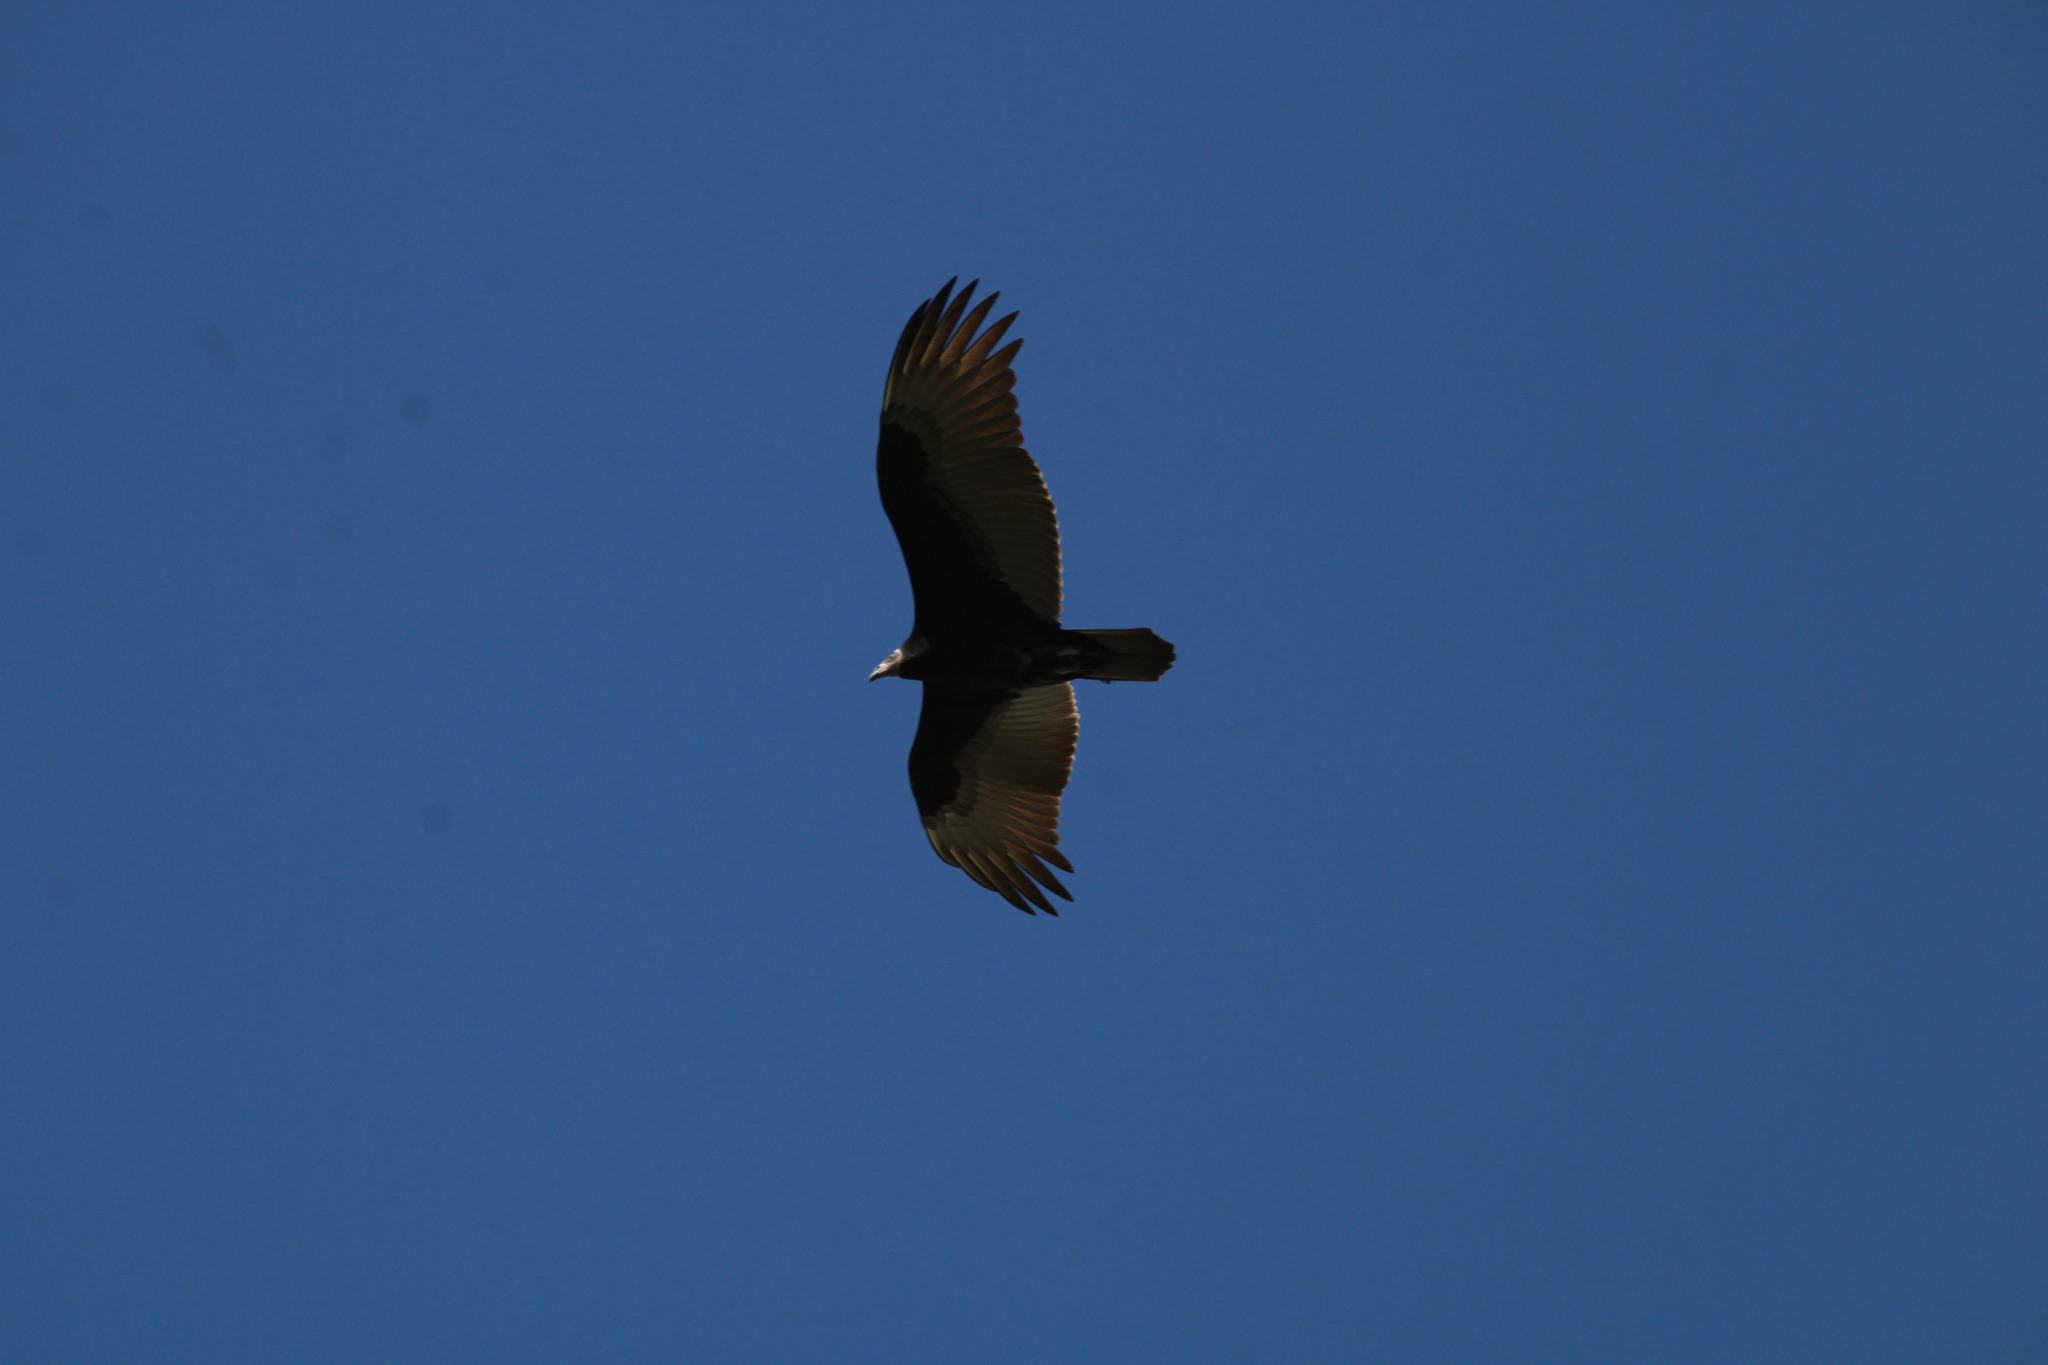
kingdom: Animalia
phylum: Chordata
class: Aves
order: Accipitriformes
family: Cathartidae
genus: Cathartes
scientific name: Cathartes aura
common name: Turkey vulture
